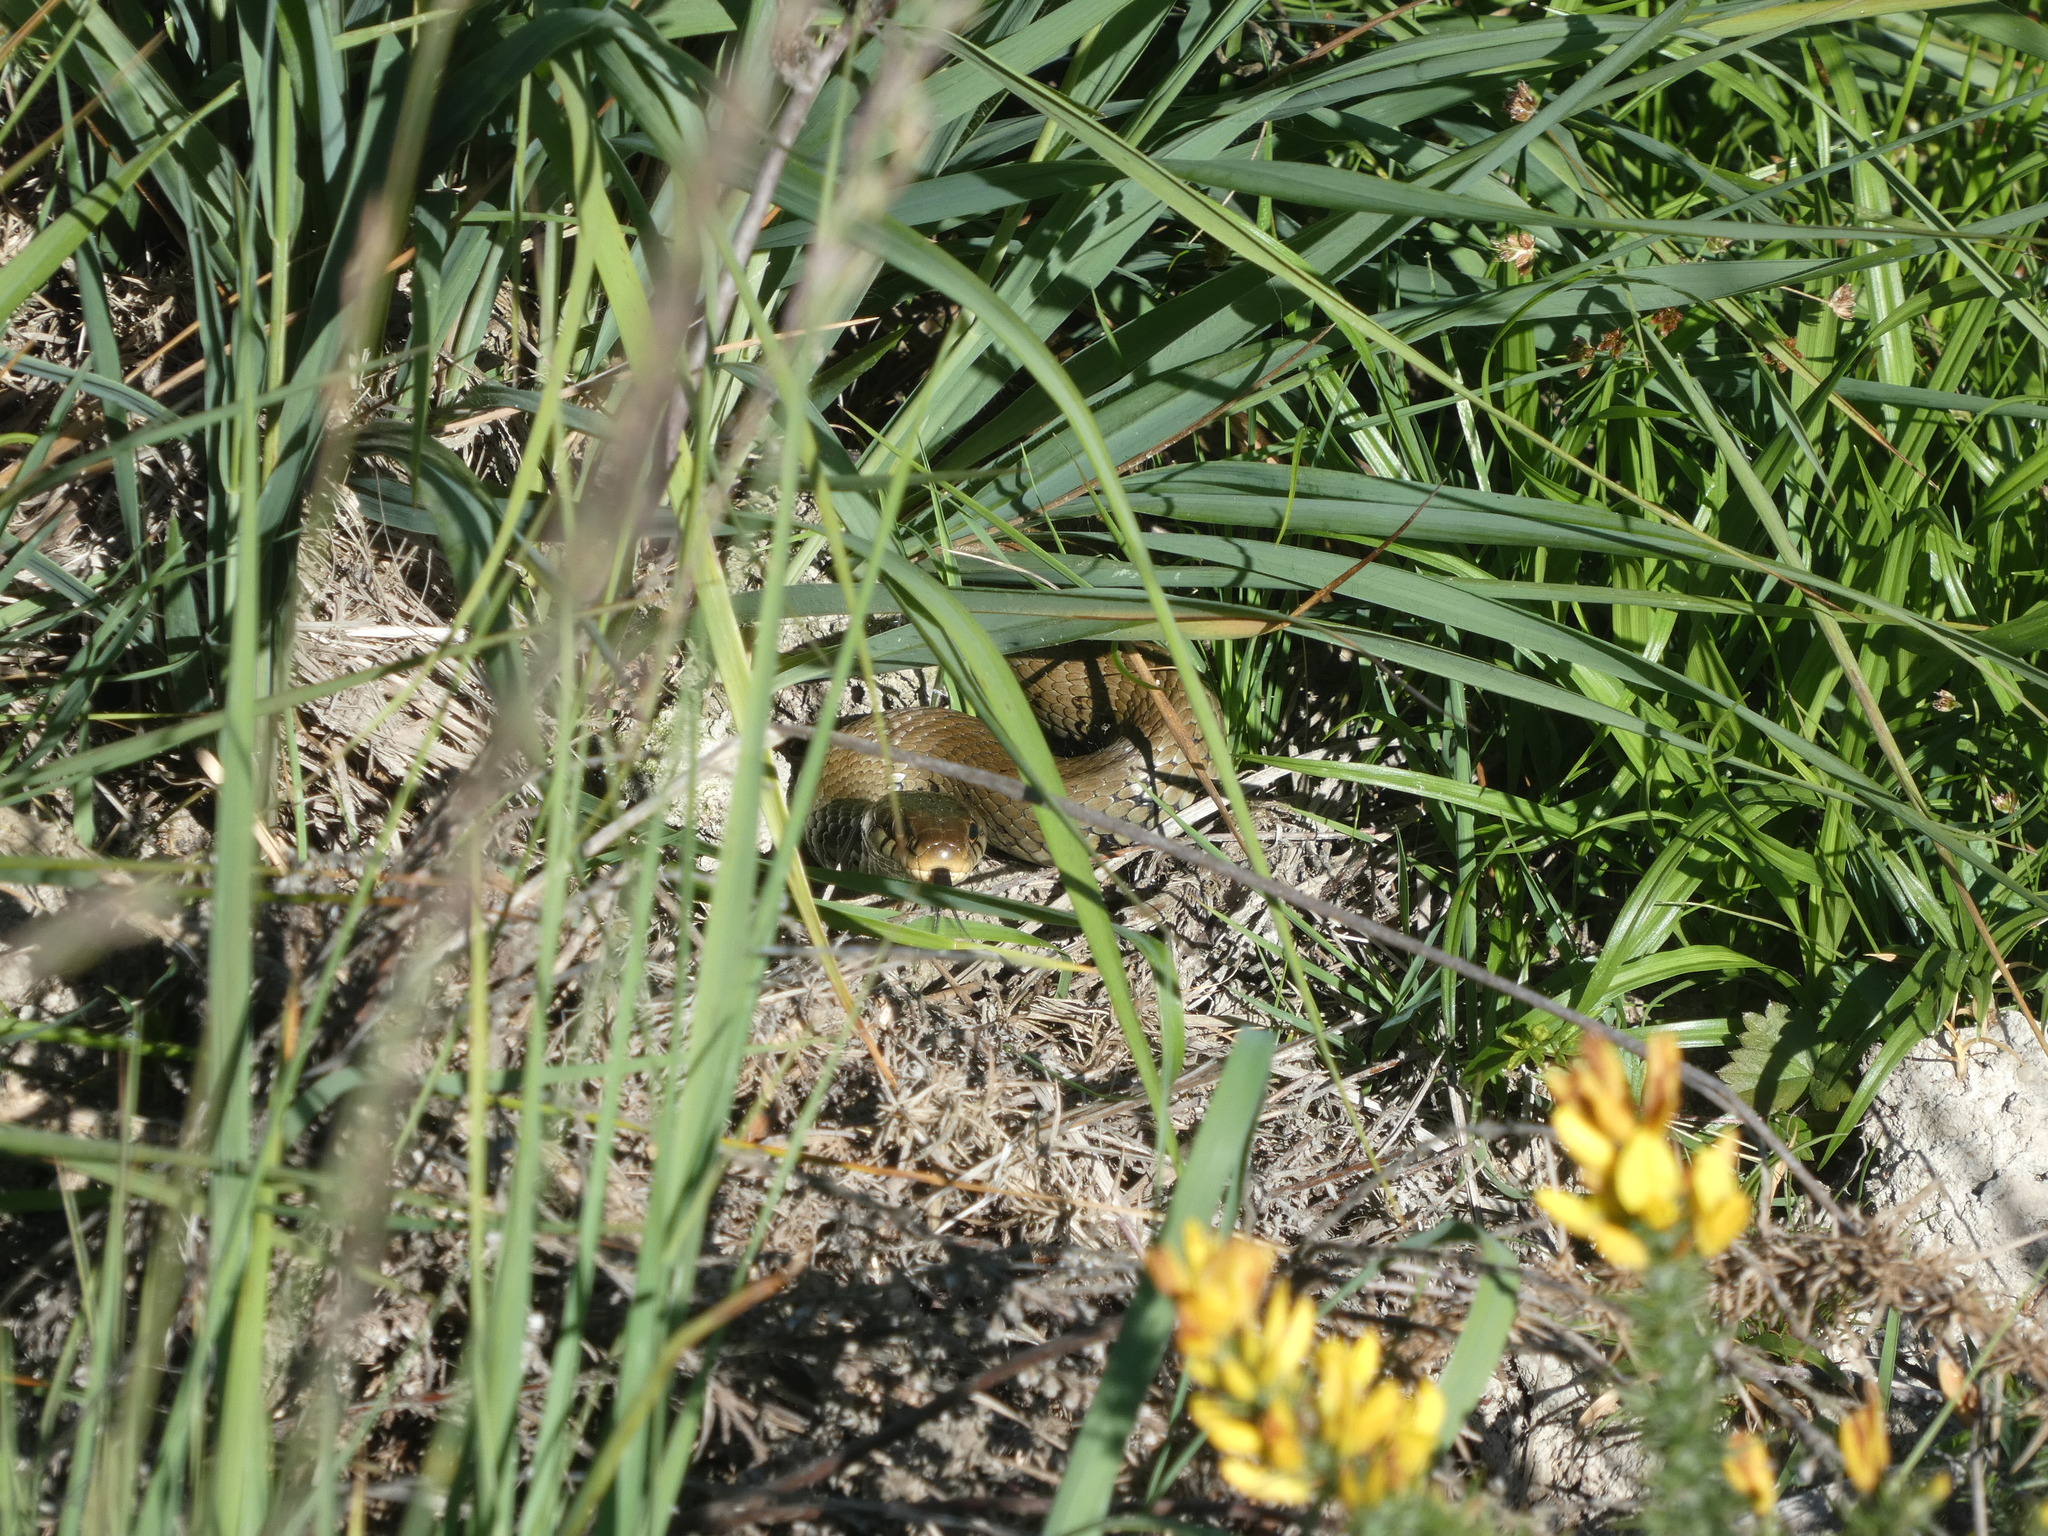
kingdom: Animalia
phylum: Chordata
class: Squamata
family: Colubridae
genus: Natrix
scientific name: Natrix helvetica
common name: Banded grass snake
